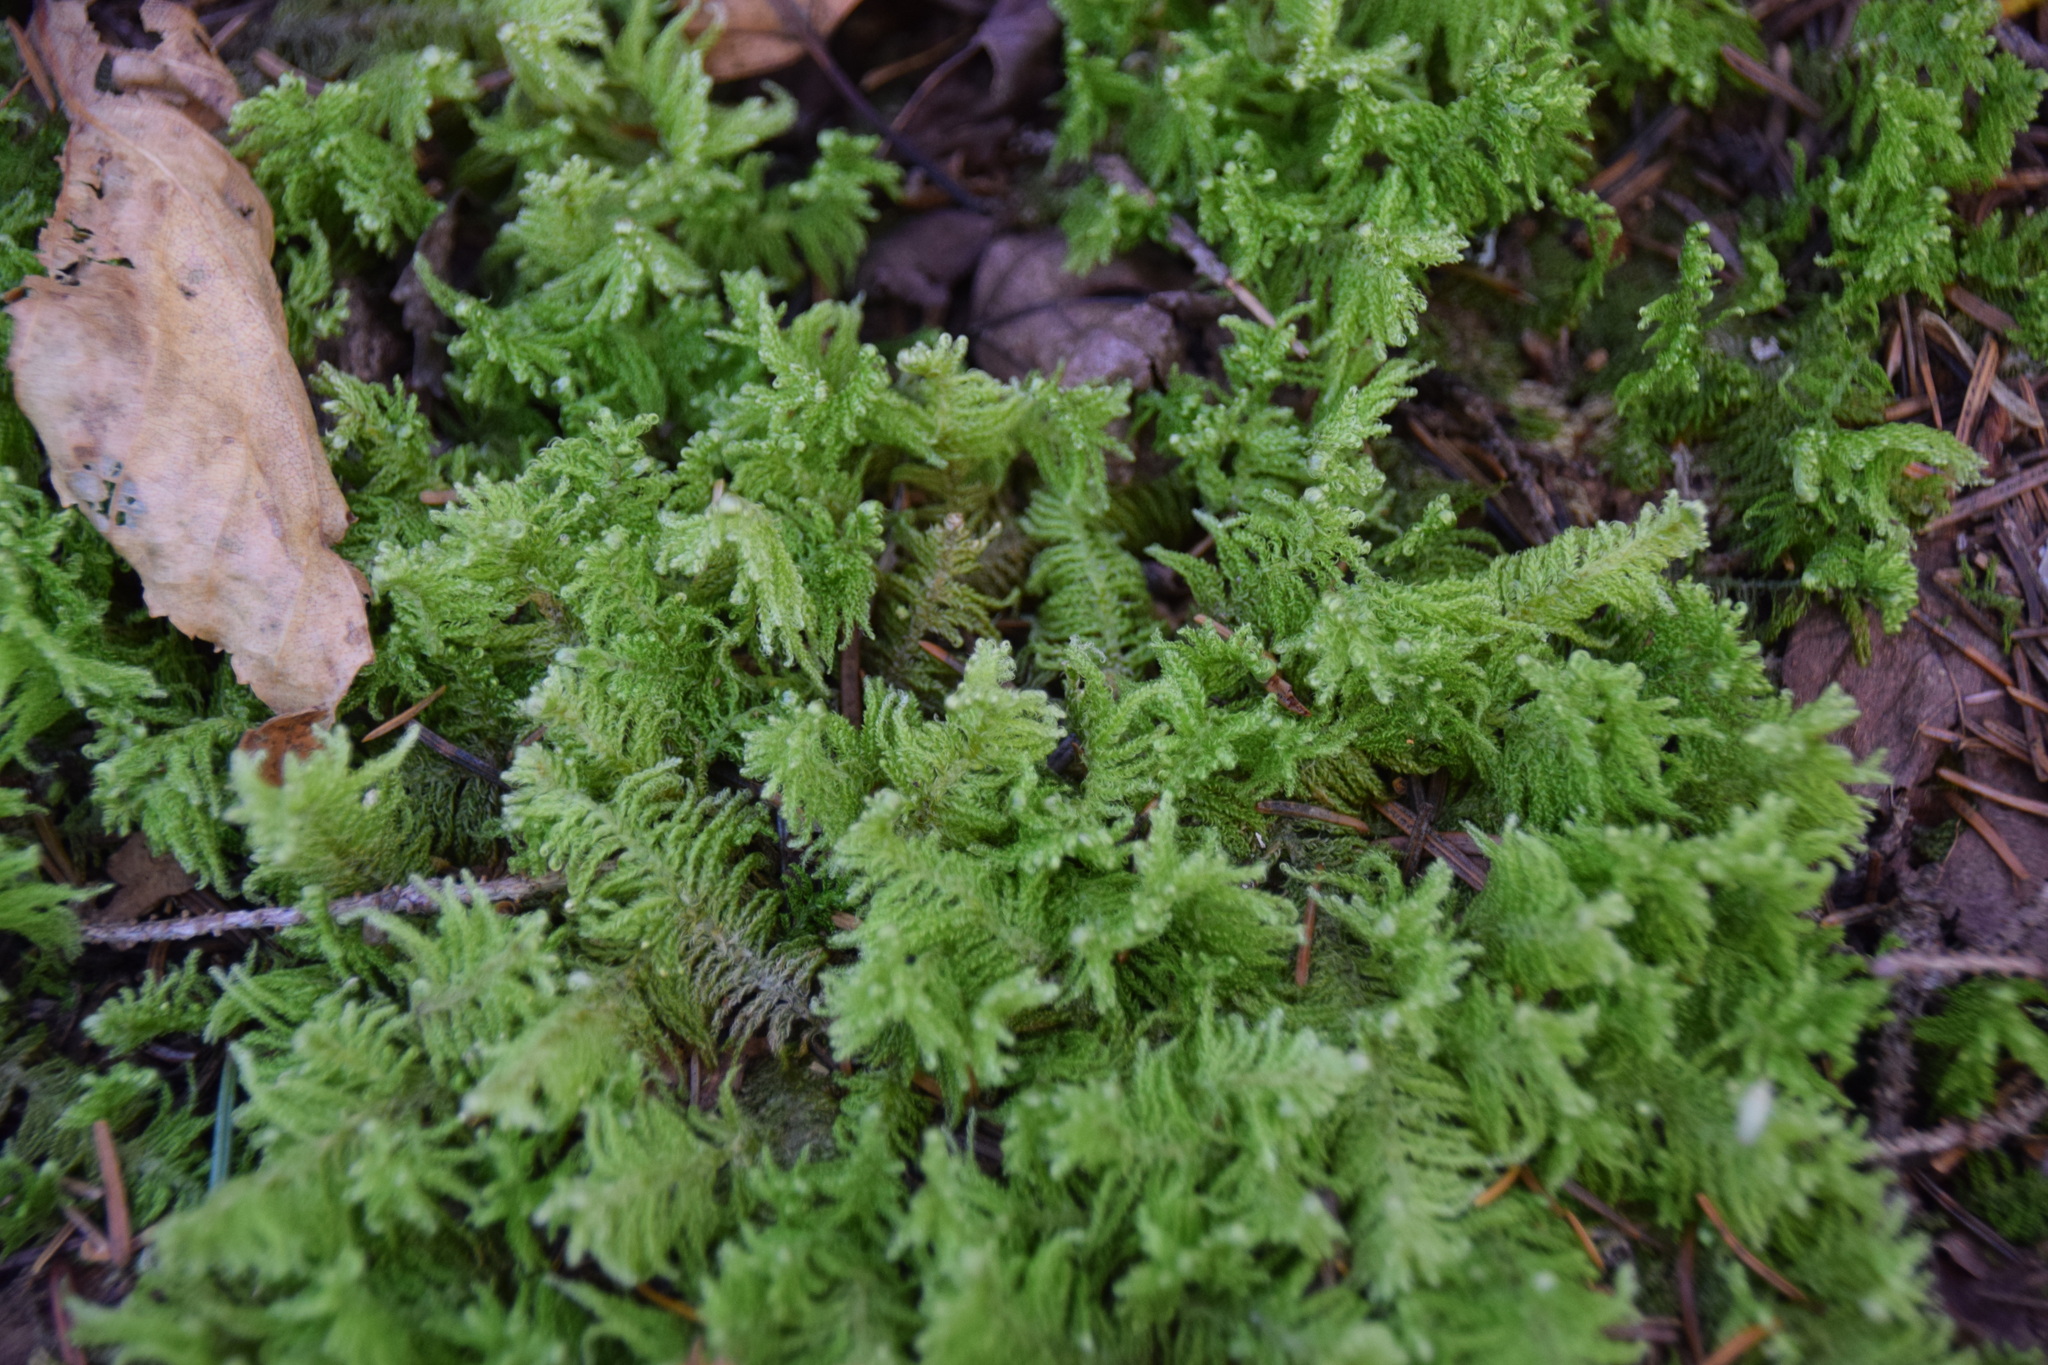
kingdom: Plantae
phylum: Bryophyta
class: Bryopsida
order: Hypnales
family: Pylaisiaceae
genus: Ptilium
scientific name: Ptilium crista-castrensis
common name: Knight's plume moss
